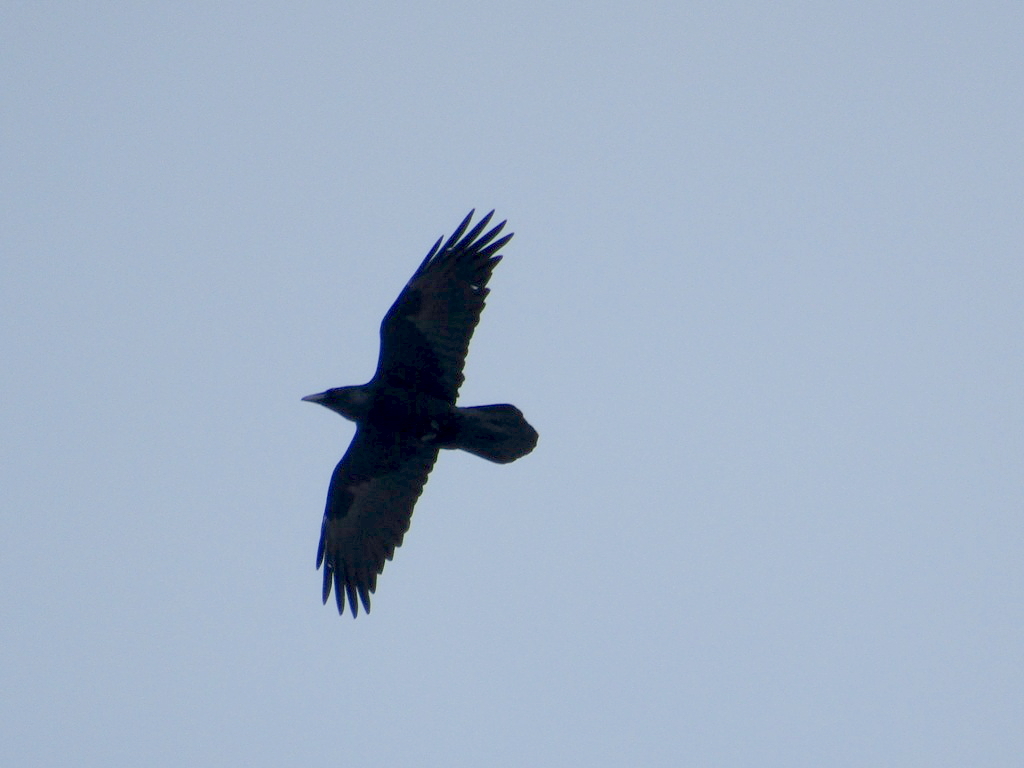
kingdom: Animalia
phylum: Chordata
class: Aves
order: Passeriformes
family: Corvidae
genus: Corvus
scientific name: Corvus corax
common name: Common raven
